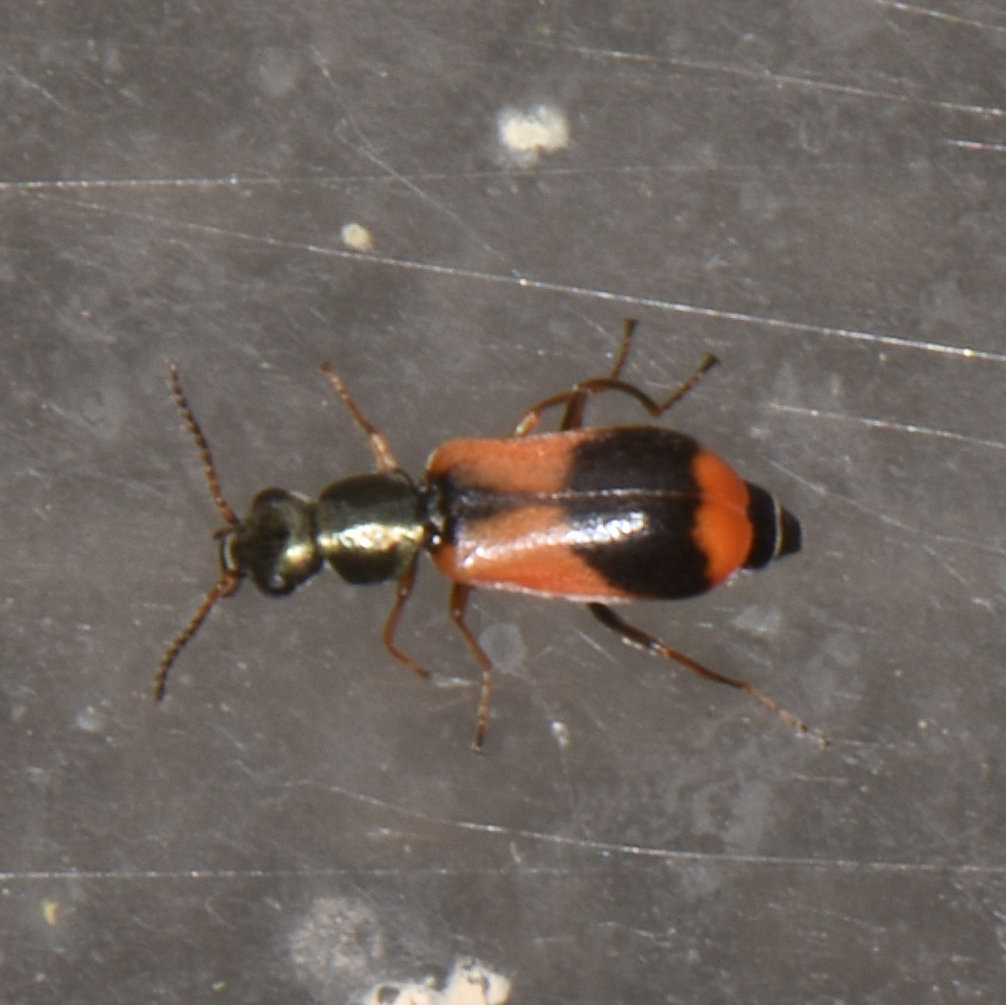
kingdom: Animalia
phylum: Arthropoda
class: Insecta
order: Coleoptera
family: Melyridae
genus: Anthocomus
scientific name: Anthocomus equestris
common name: Black-banded soft-winged flower beetle
